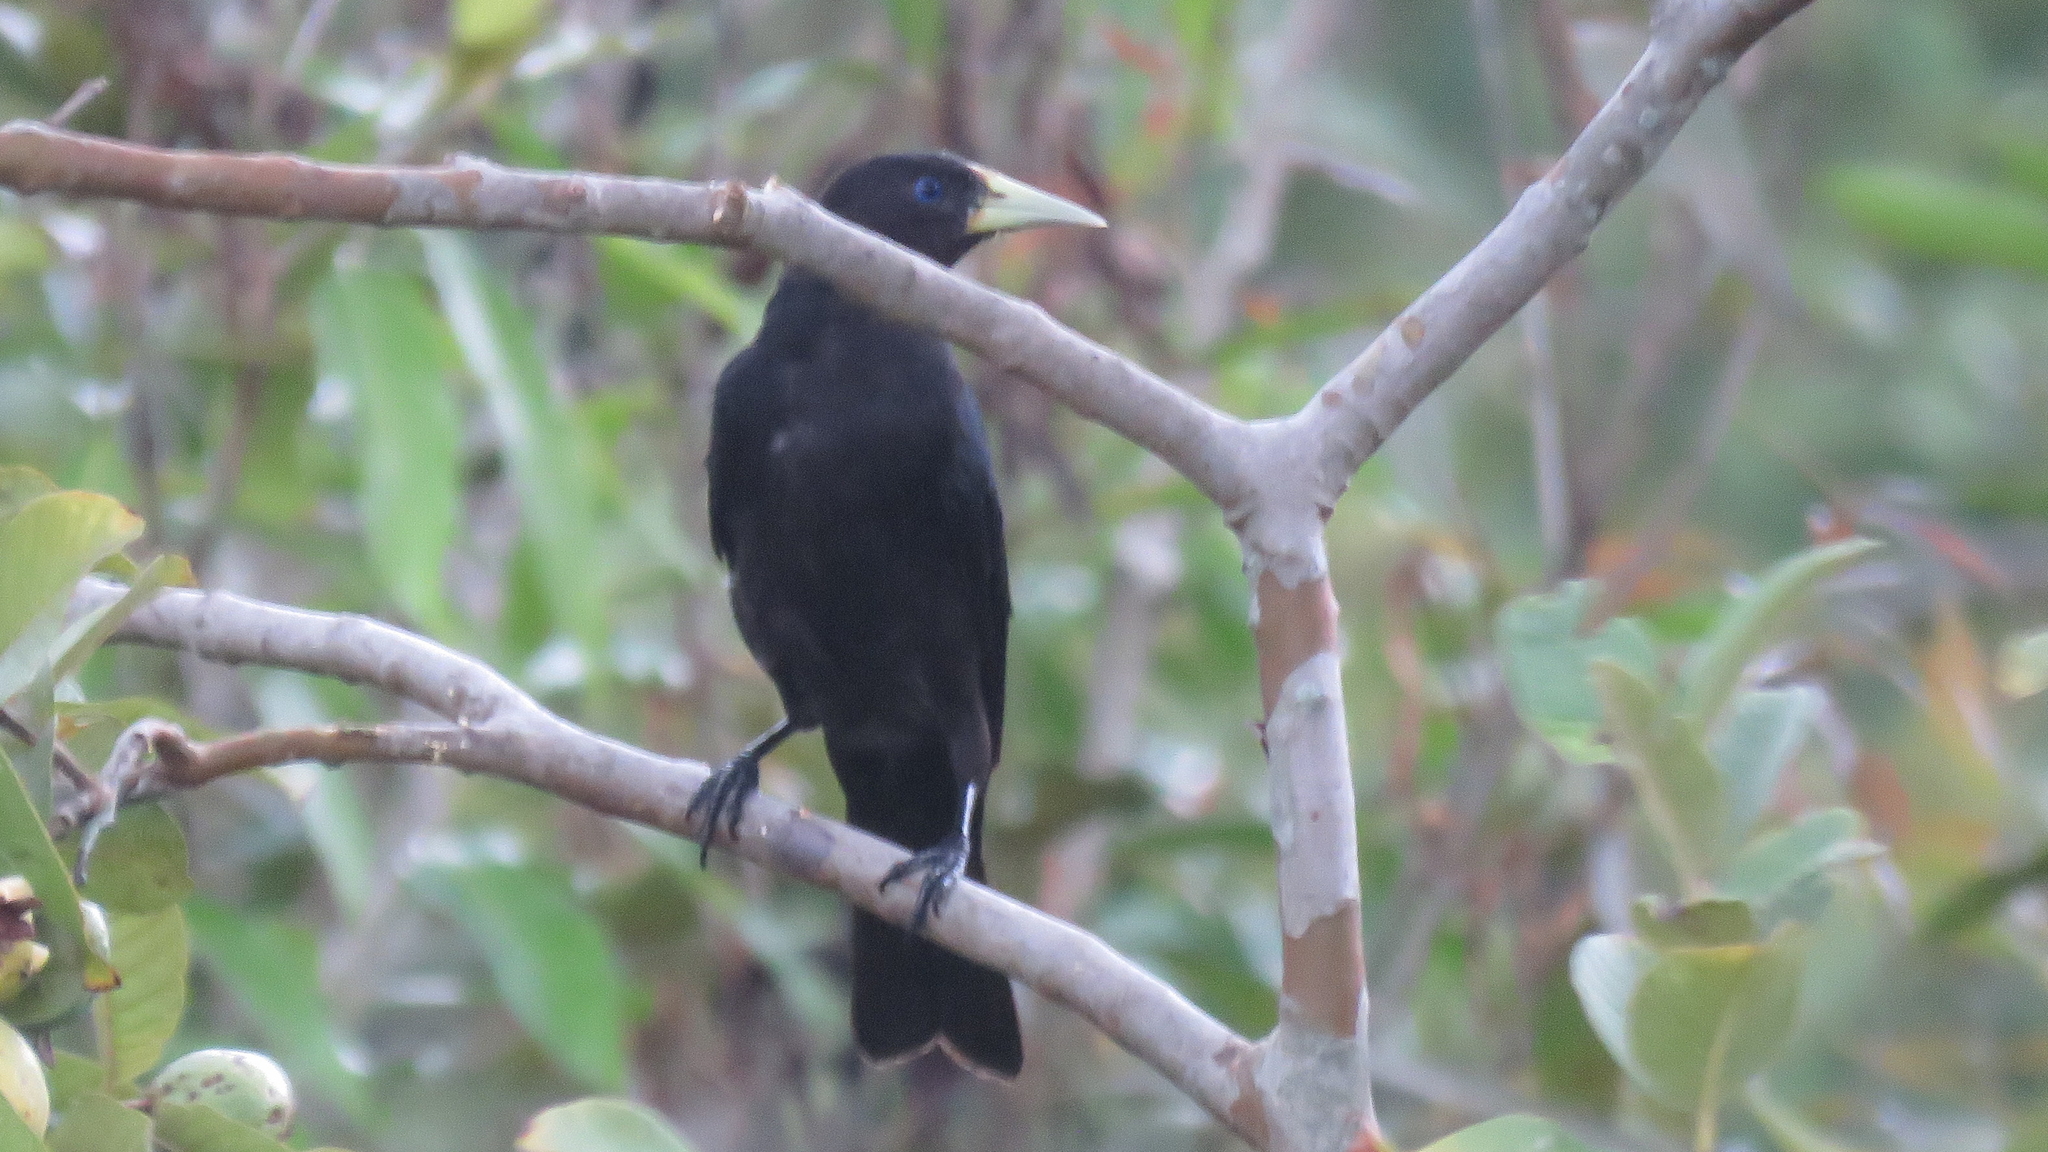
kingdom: Animalia
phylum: Chordata
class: Aves
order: Passeriformes
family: Icteridae
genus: Cacicus
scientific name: Cacicus haemorrhous
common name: Red-rumped cacique
